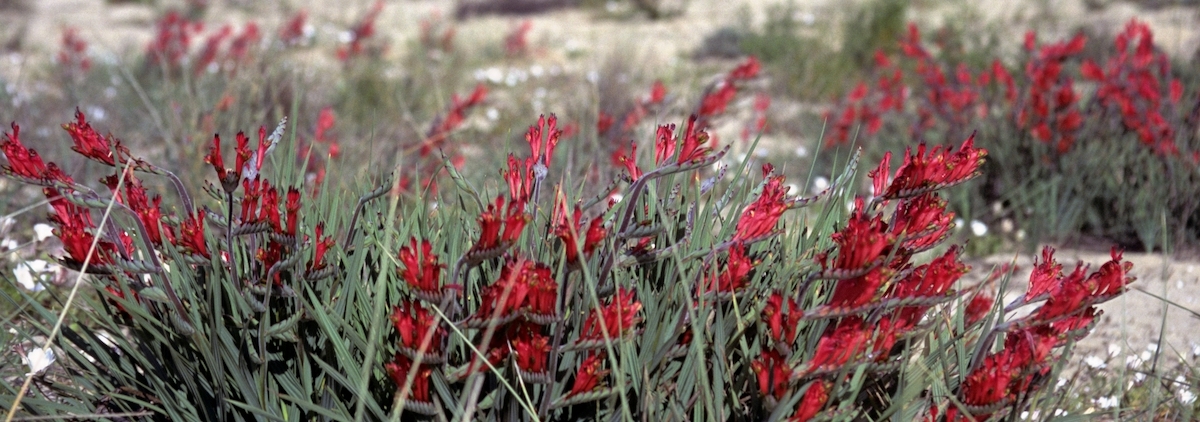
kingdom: Plantae
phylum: Tracheophyta
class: Liliopsida
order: Asparagales
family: Iridaceae
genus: Babiana
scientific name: Babiana hirsuta
